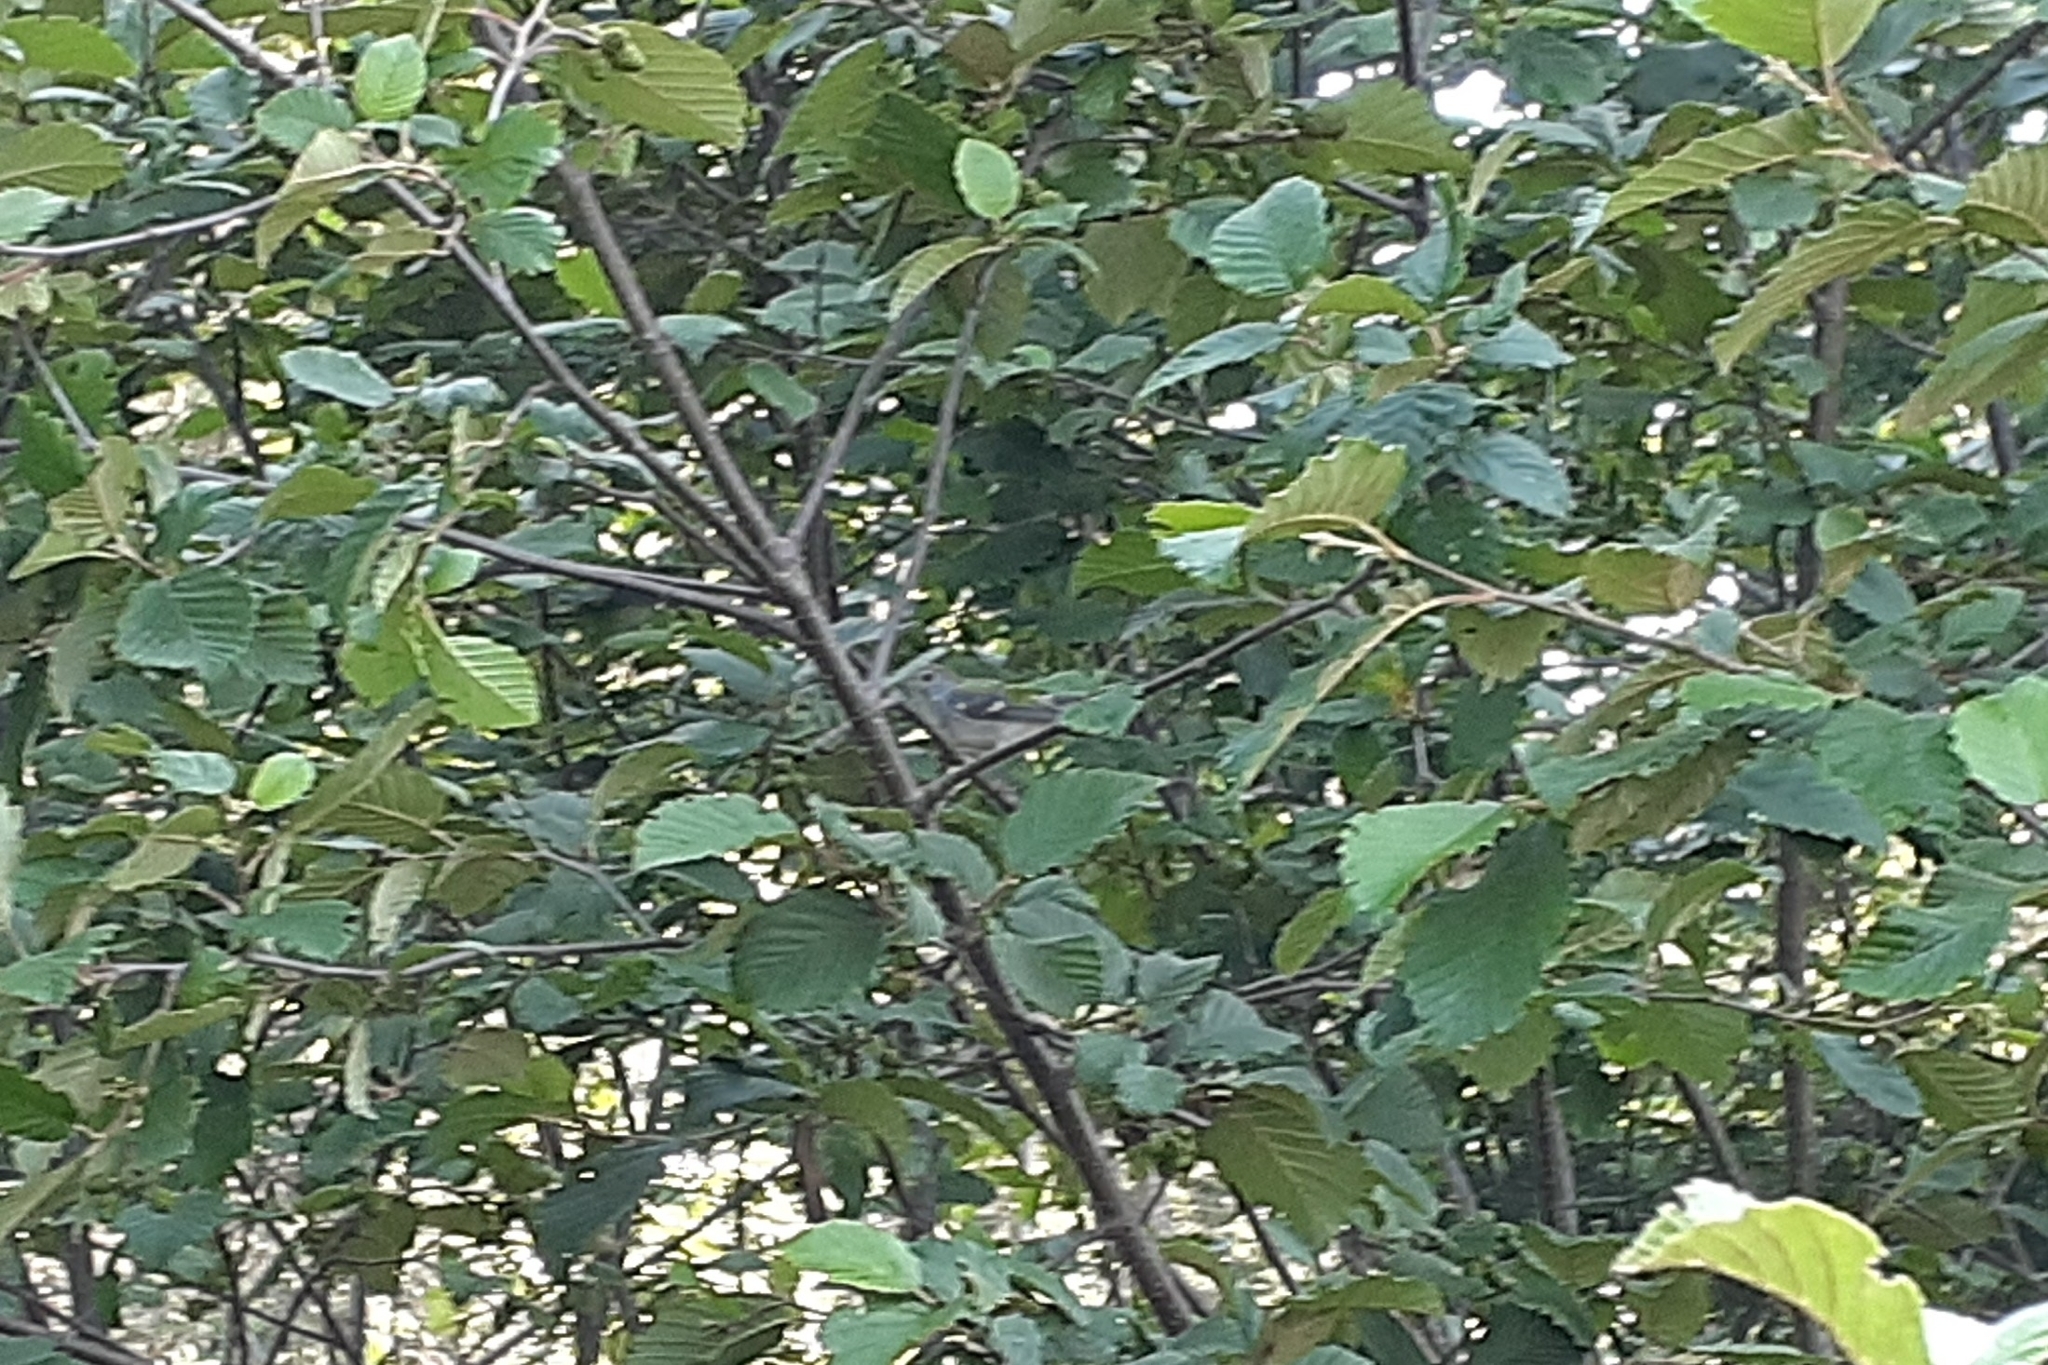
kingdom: Animalia
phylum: Chordata
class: Aves
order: Passeriformes
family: Parulidae
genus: Setophaga
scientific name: Setophaga pensylvanica
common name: Chestnut-sided warbler
